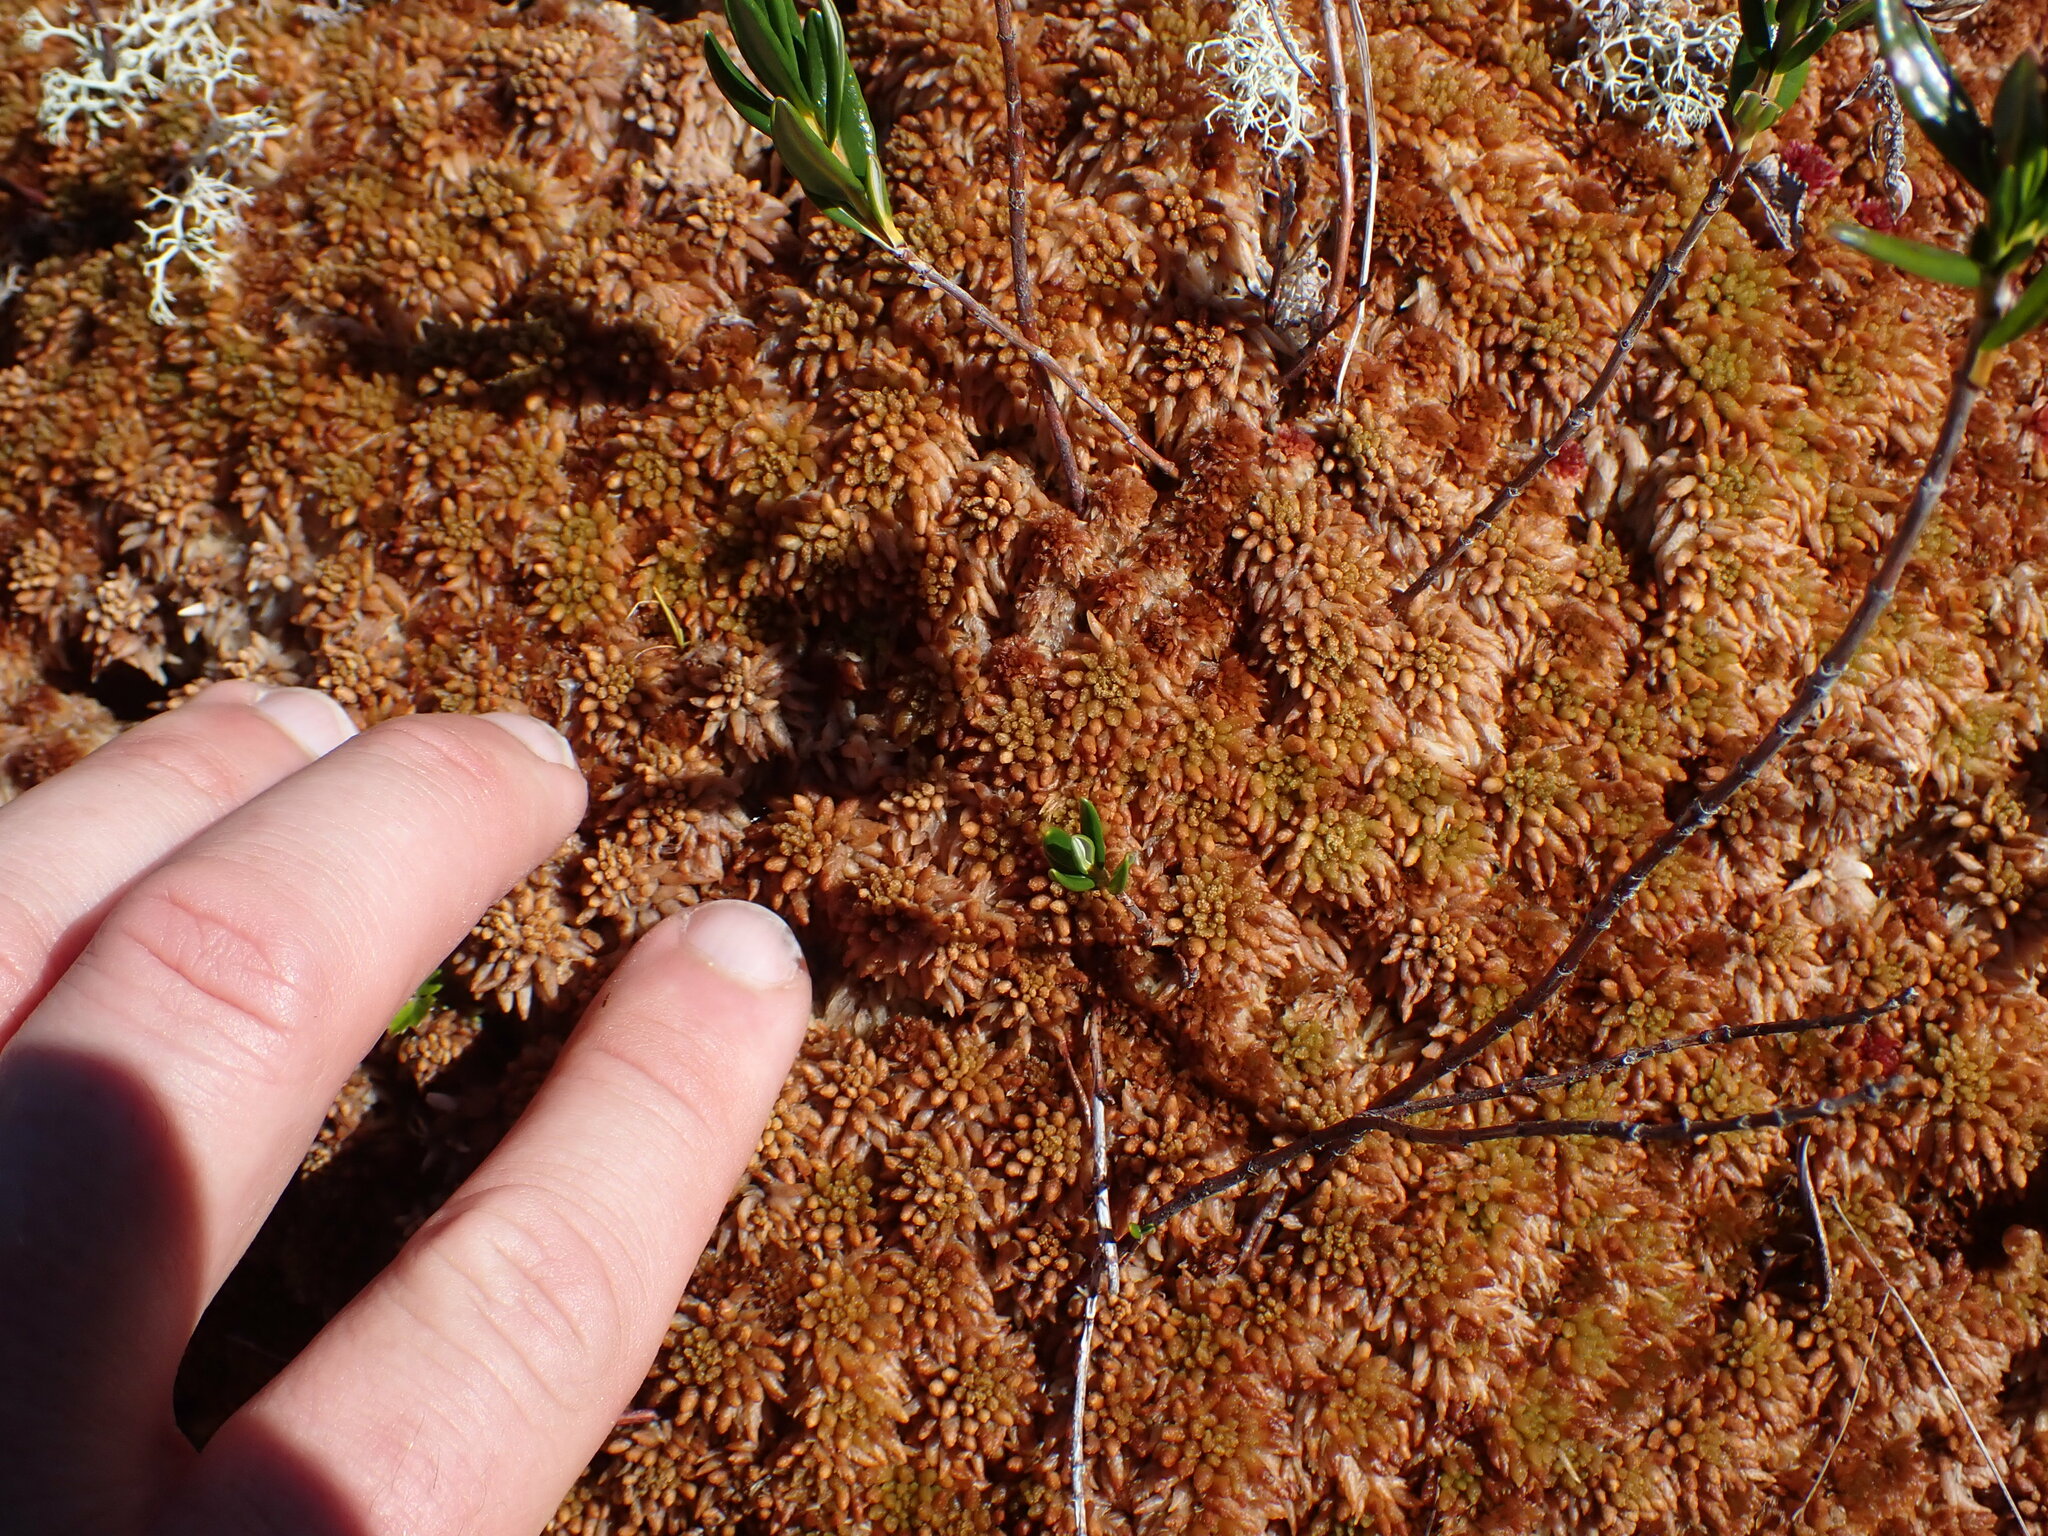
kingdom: Plantae
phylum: Bryophyta
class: Sphagnopsida
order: Sphagnales
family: Sphagnaceae
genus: Sphagnum
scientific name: Sphagnum austinii
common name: Austin's peat moss
